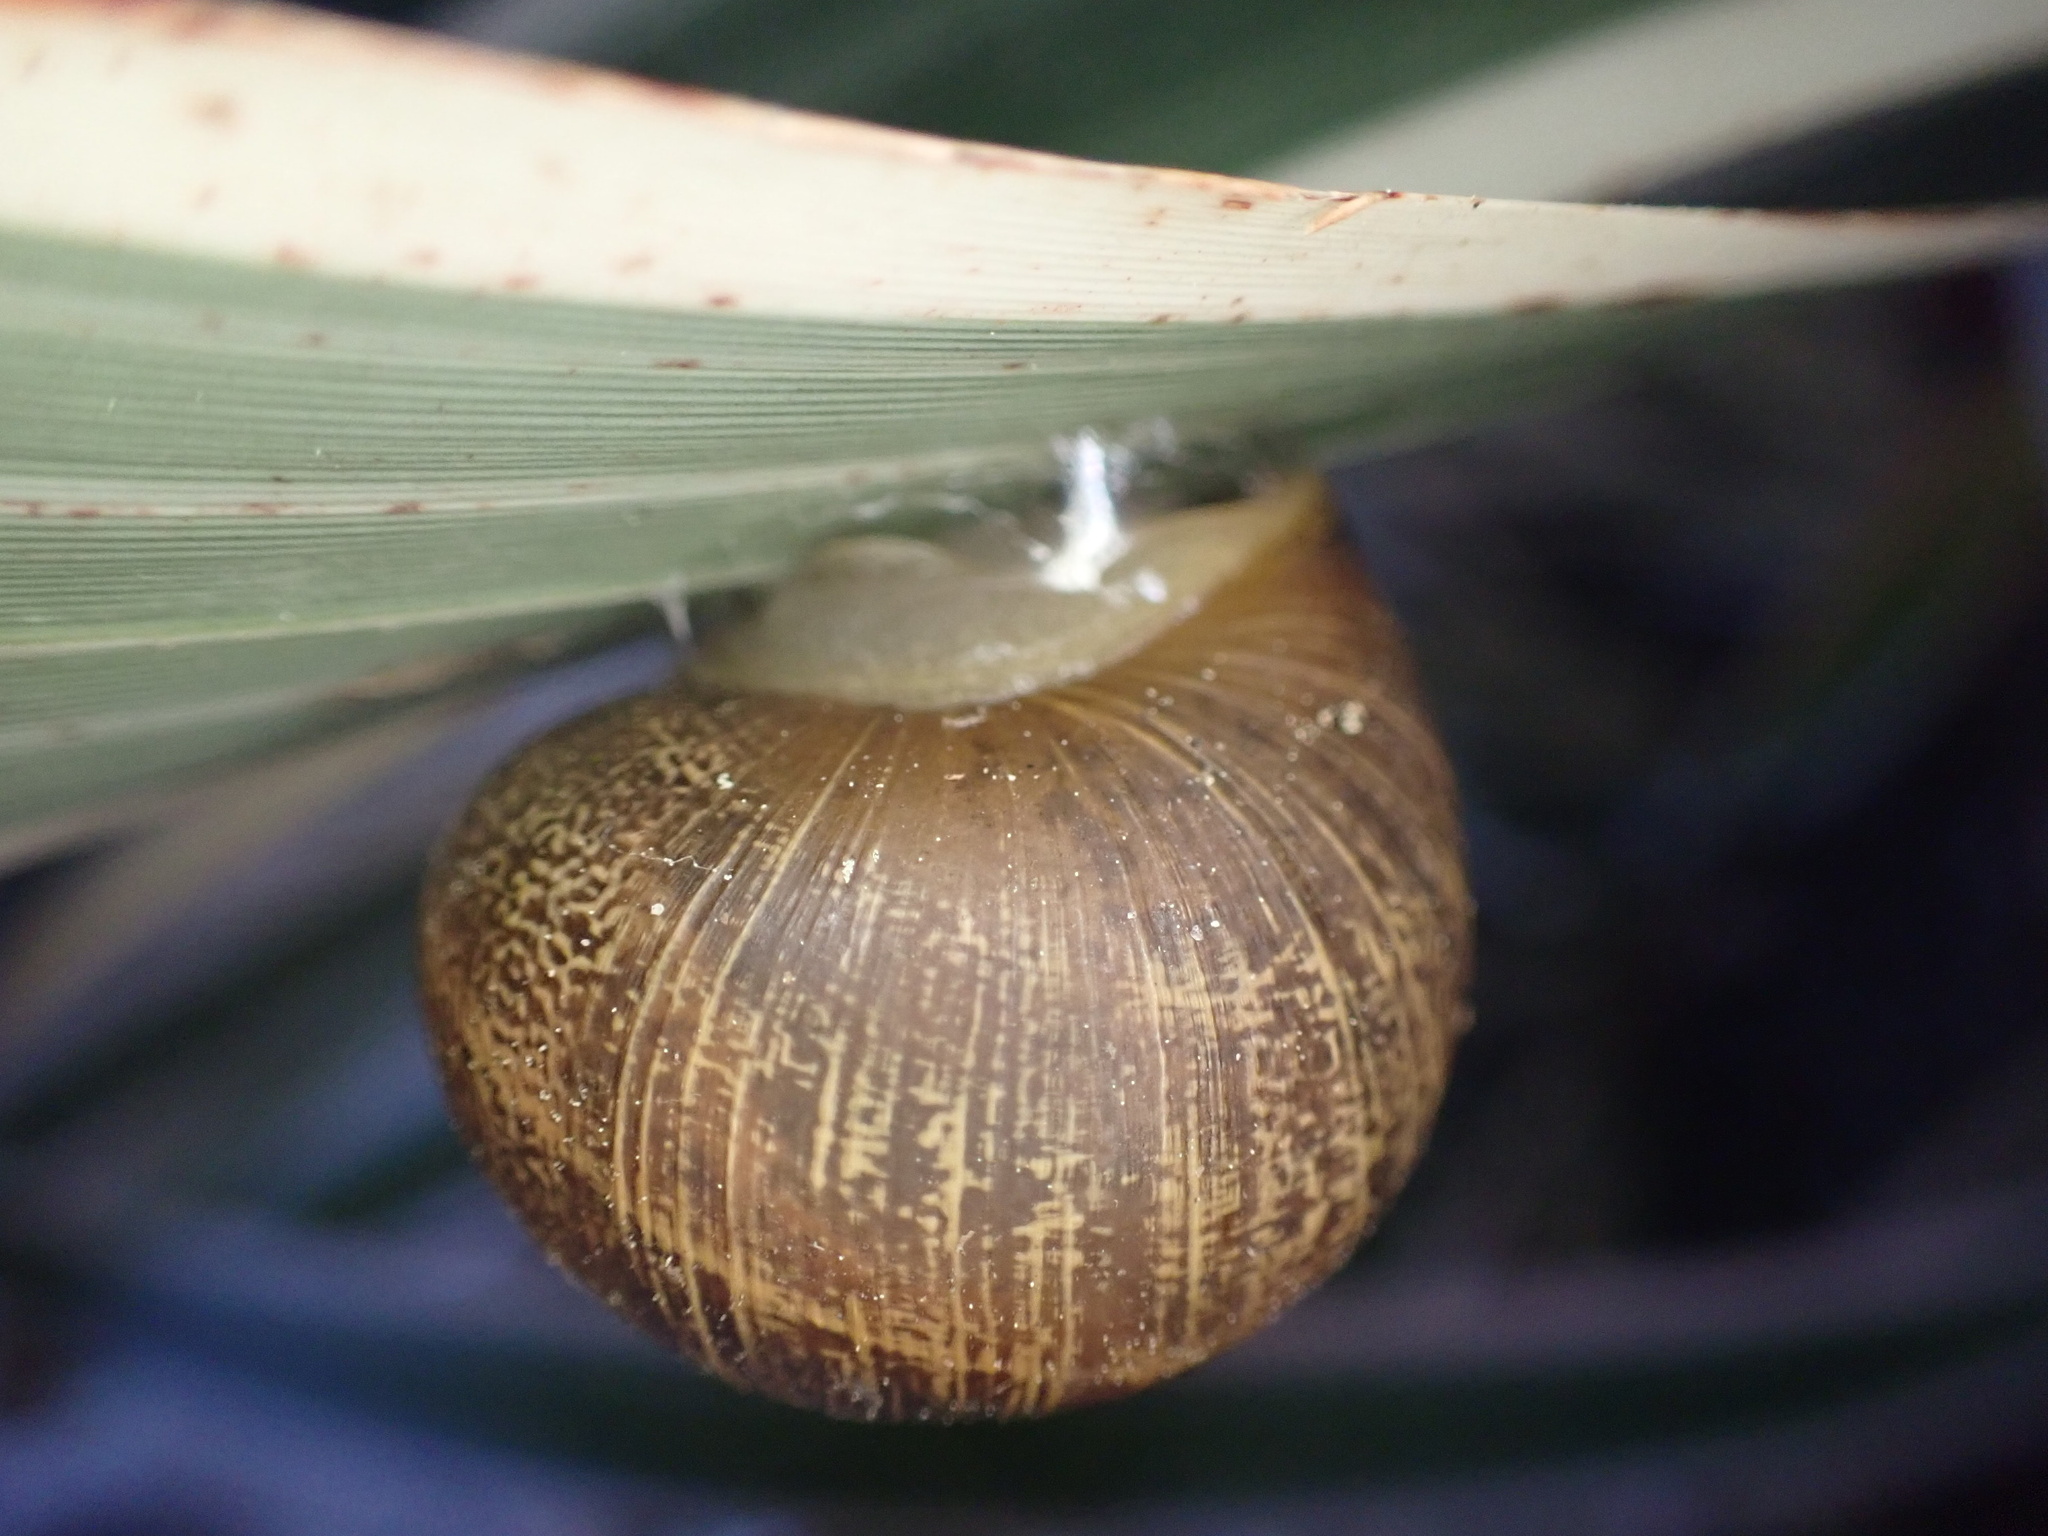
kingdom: Animalia
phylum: Mollusca
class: Gastropoda
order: Stylommatophora
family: Helicidae
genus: Cornu
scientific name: Cornu aspersum
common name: Brown garden snail
